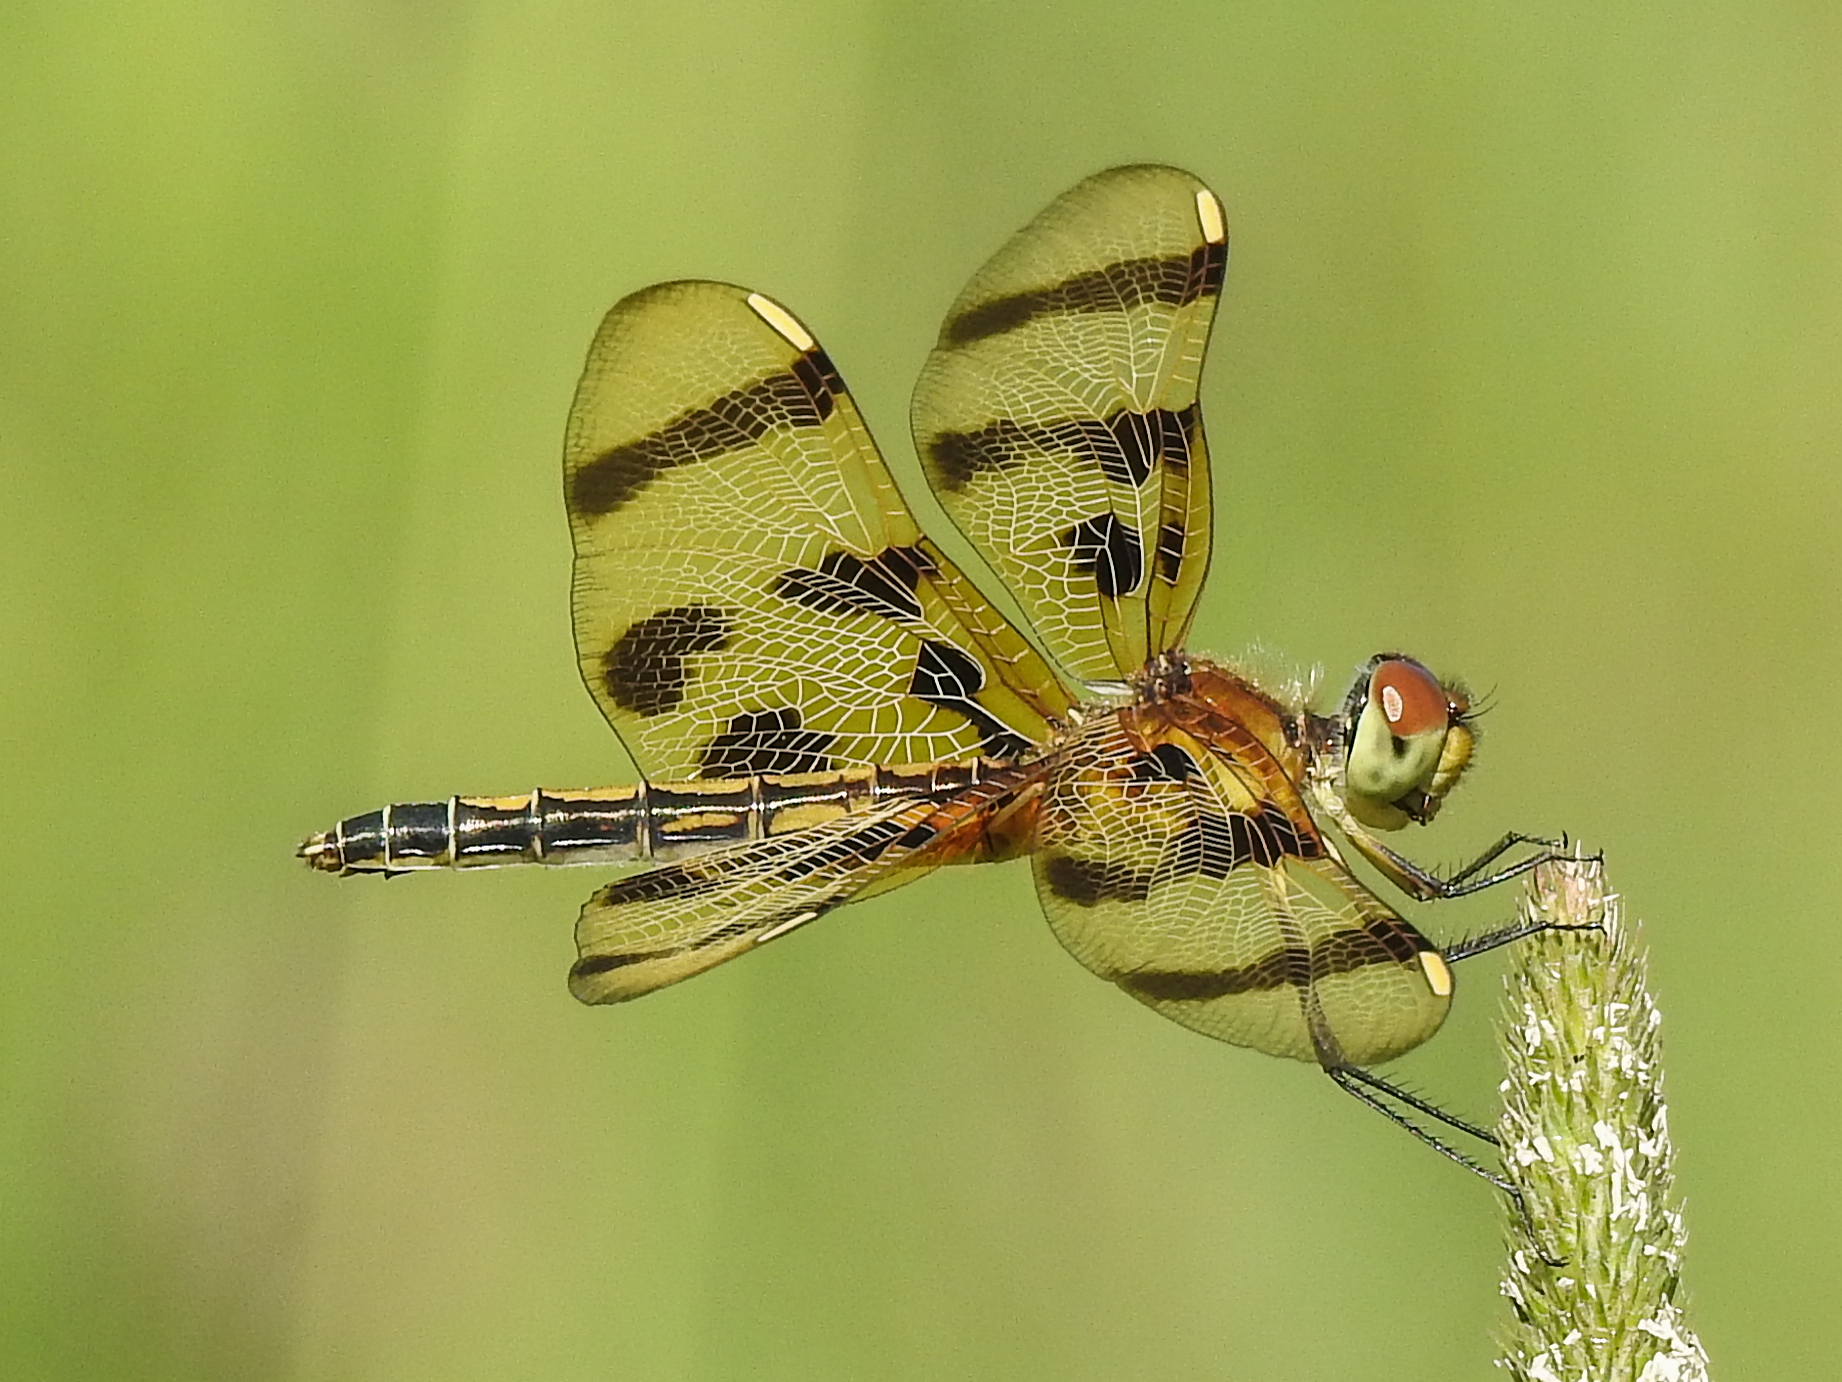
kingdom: Animalia
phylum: Arthropoda
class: Insecta
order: Odonata
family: Libellulidae
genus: Celithemis
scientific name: Celithemis eponina
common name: Halloween pennant
